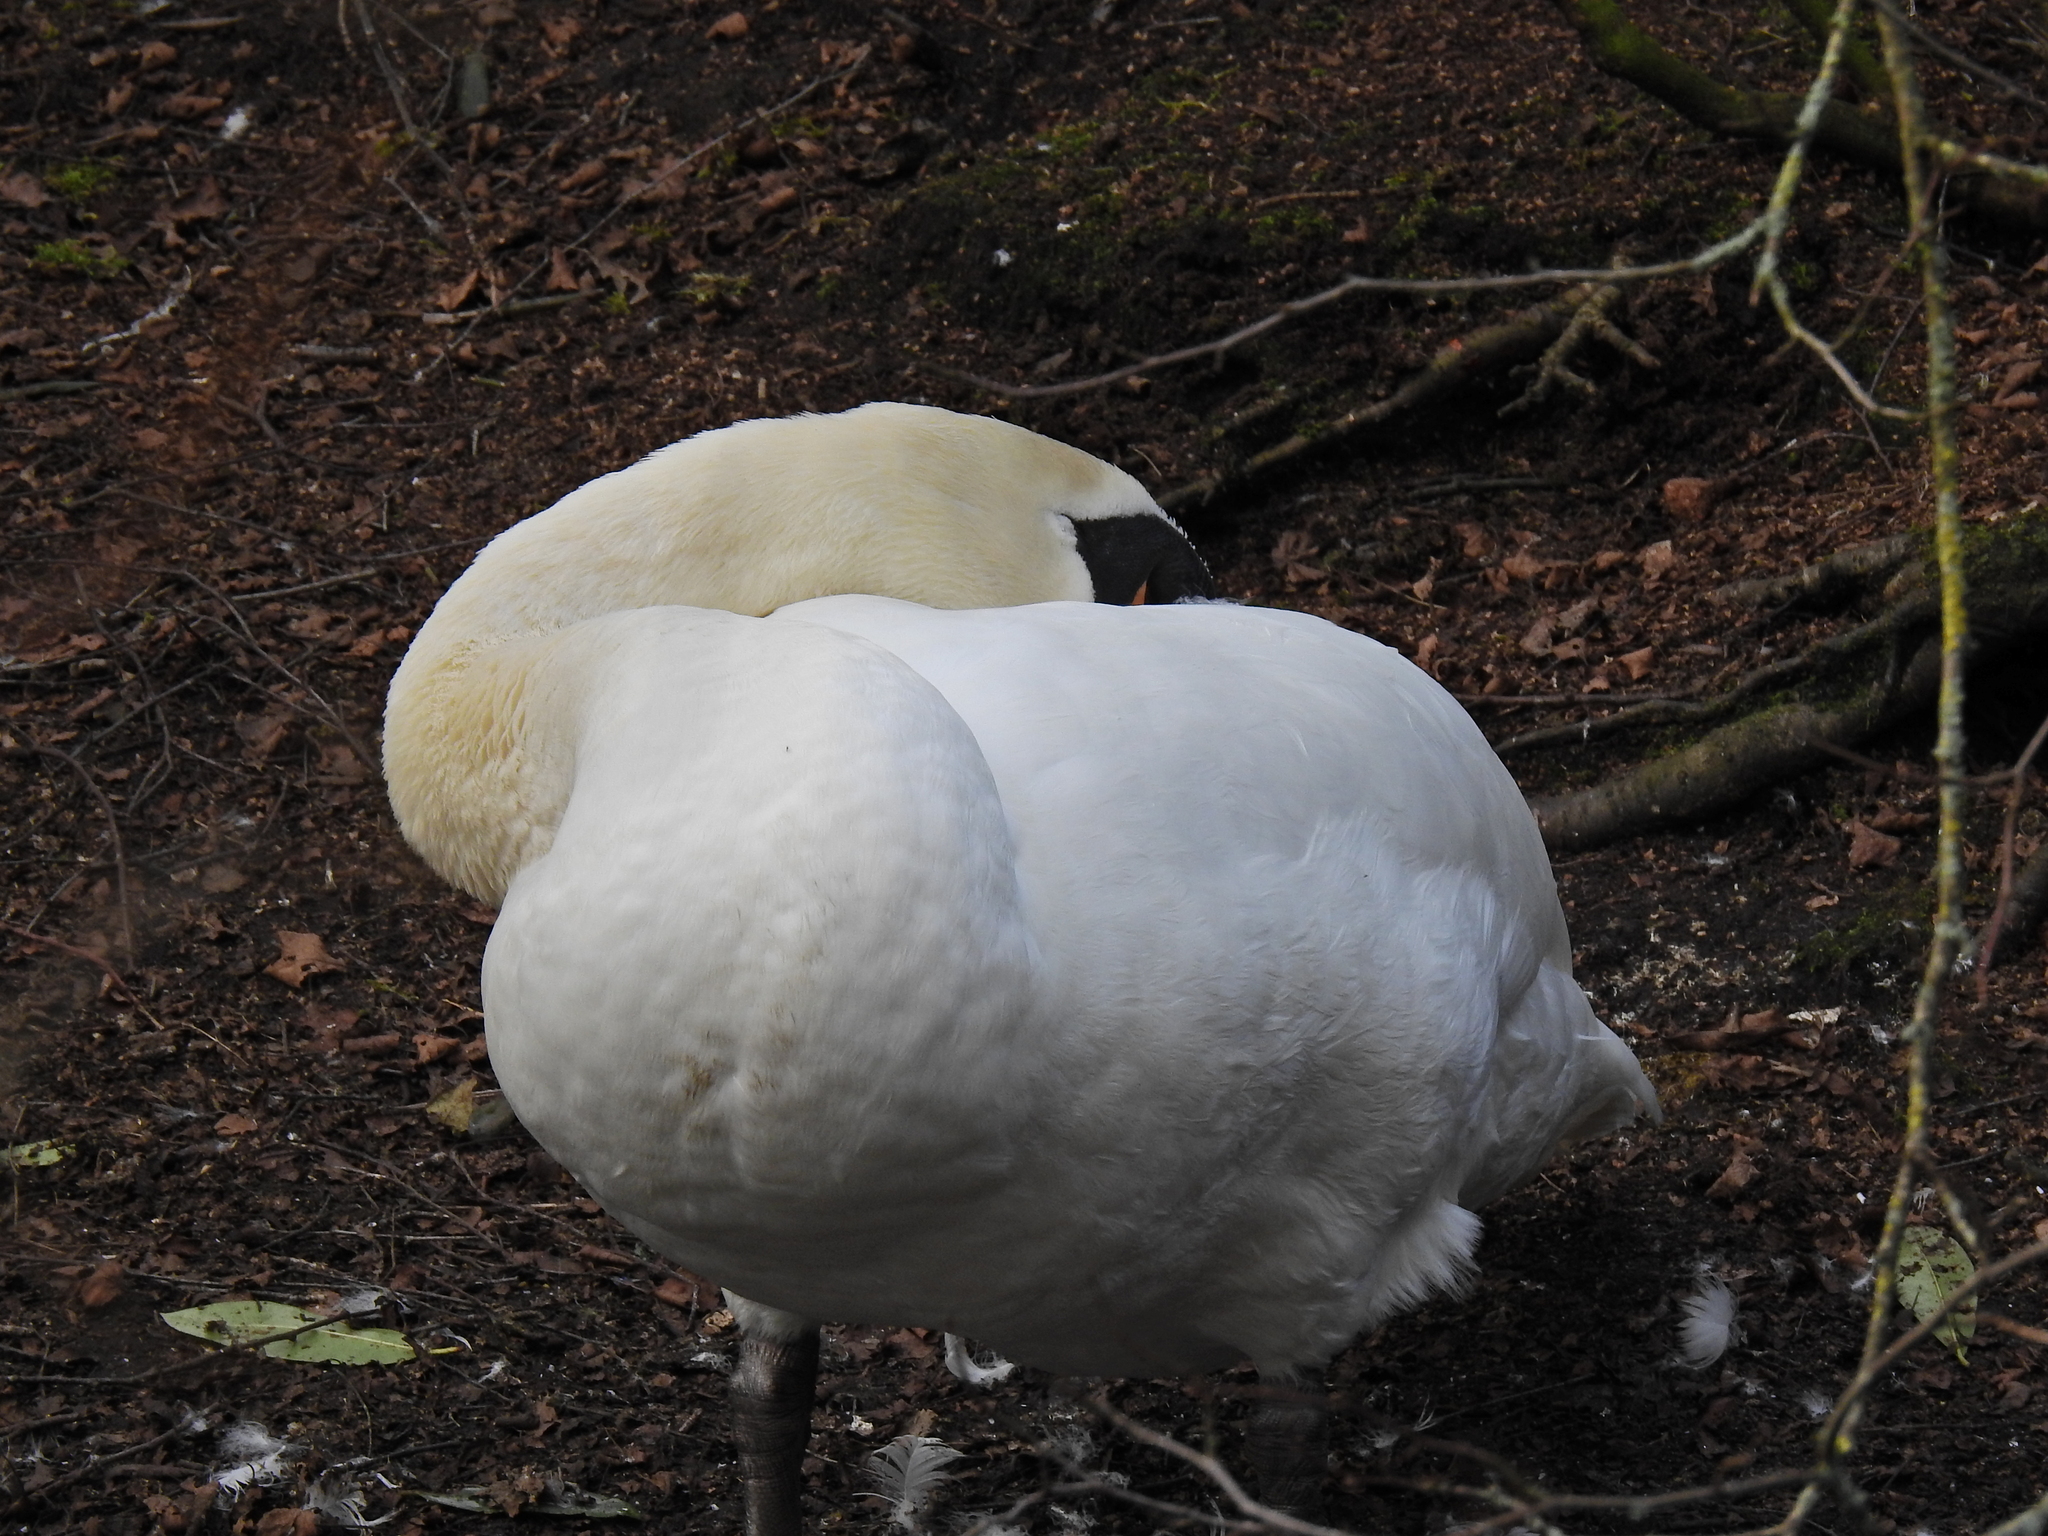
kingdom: Animalia
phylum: Chordata
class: Aves
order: Anseriformes
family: Anatidae
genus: Cygnus
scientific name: Cygnus olor
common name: Mute swan
